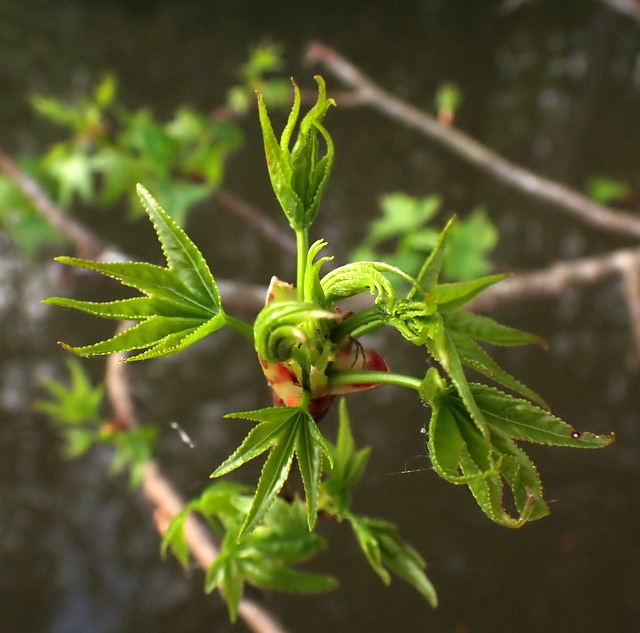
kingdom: Plantae
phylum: Tracheophyta
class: Magnoliopsida
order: Saxifragales
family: Altingiaceae
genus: Liquidambar
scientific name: Liquidambar styraciflua
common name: Sweet gum
